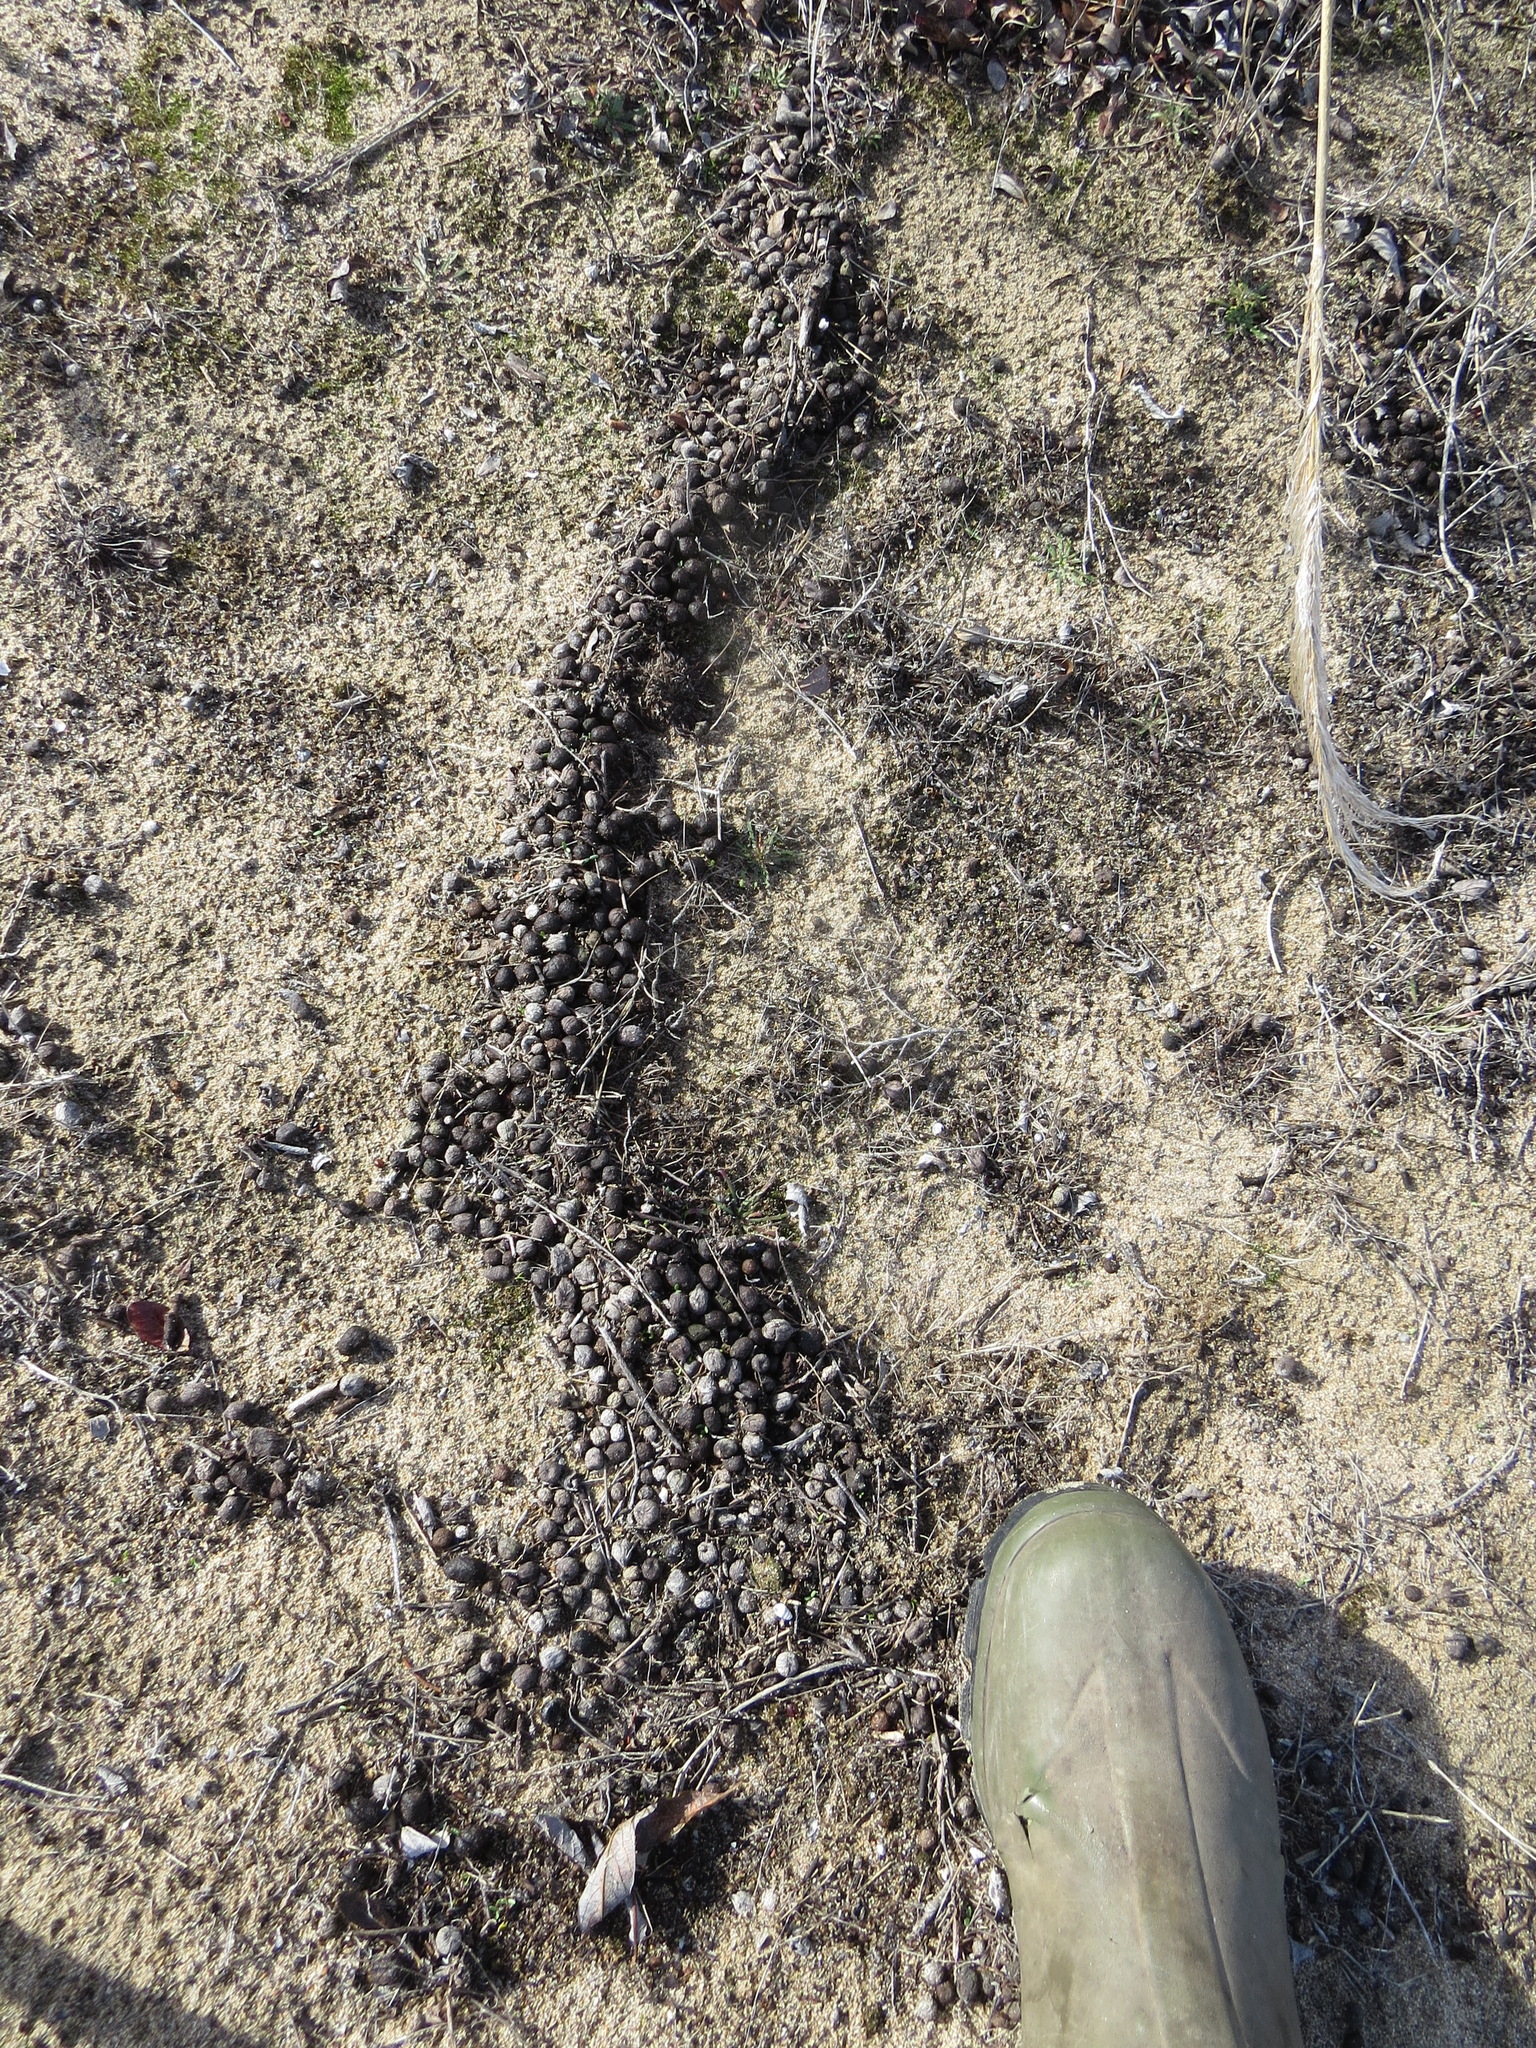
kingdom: Animalia
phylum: Chordata
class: Mammalia
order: Artiodactyla
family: Cervidae
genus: Odocoileus
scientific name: Odocoileus hemionus
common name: Mule deer
